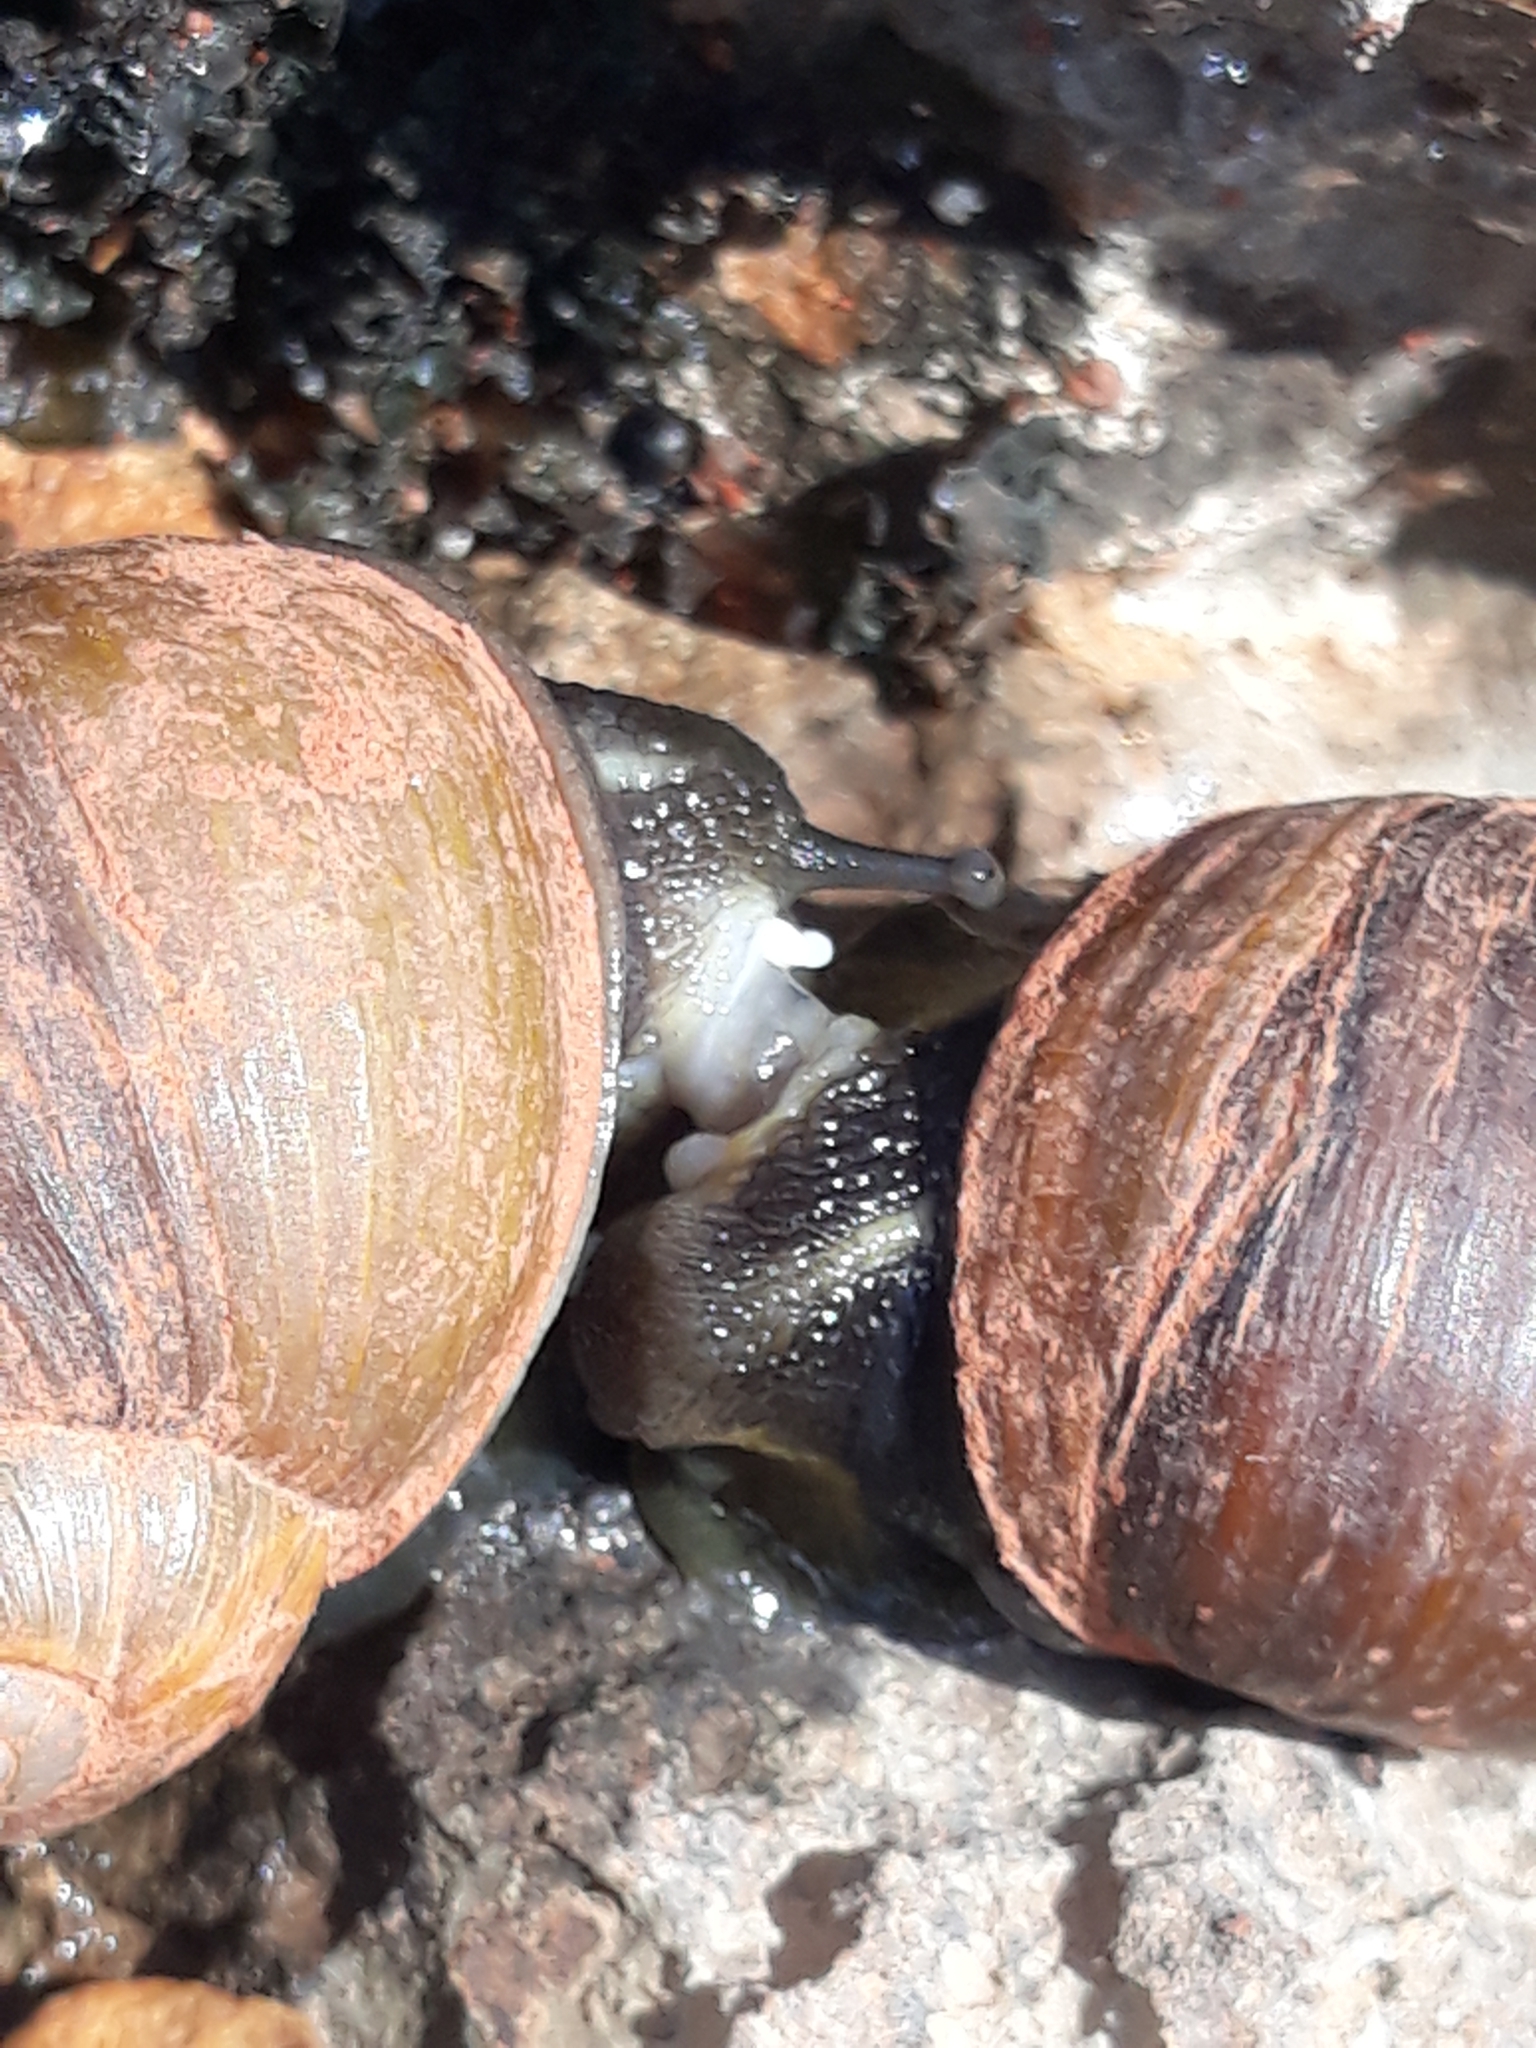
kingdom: Animalia
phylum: Mollusca
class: Gastropoda
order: Stylommatophora
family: Helicidae
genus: Cantareus
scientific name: Cantareus apertus
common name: Green gardensnail
